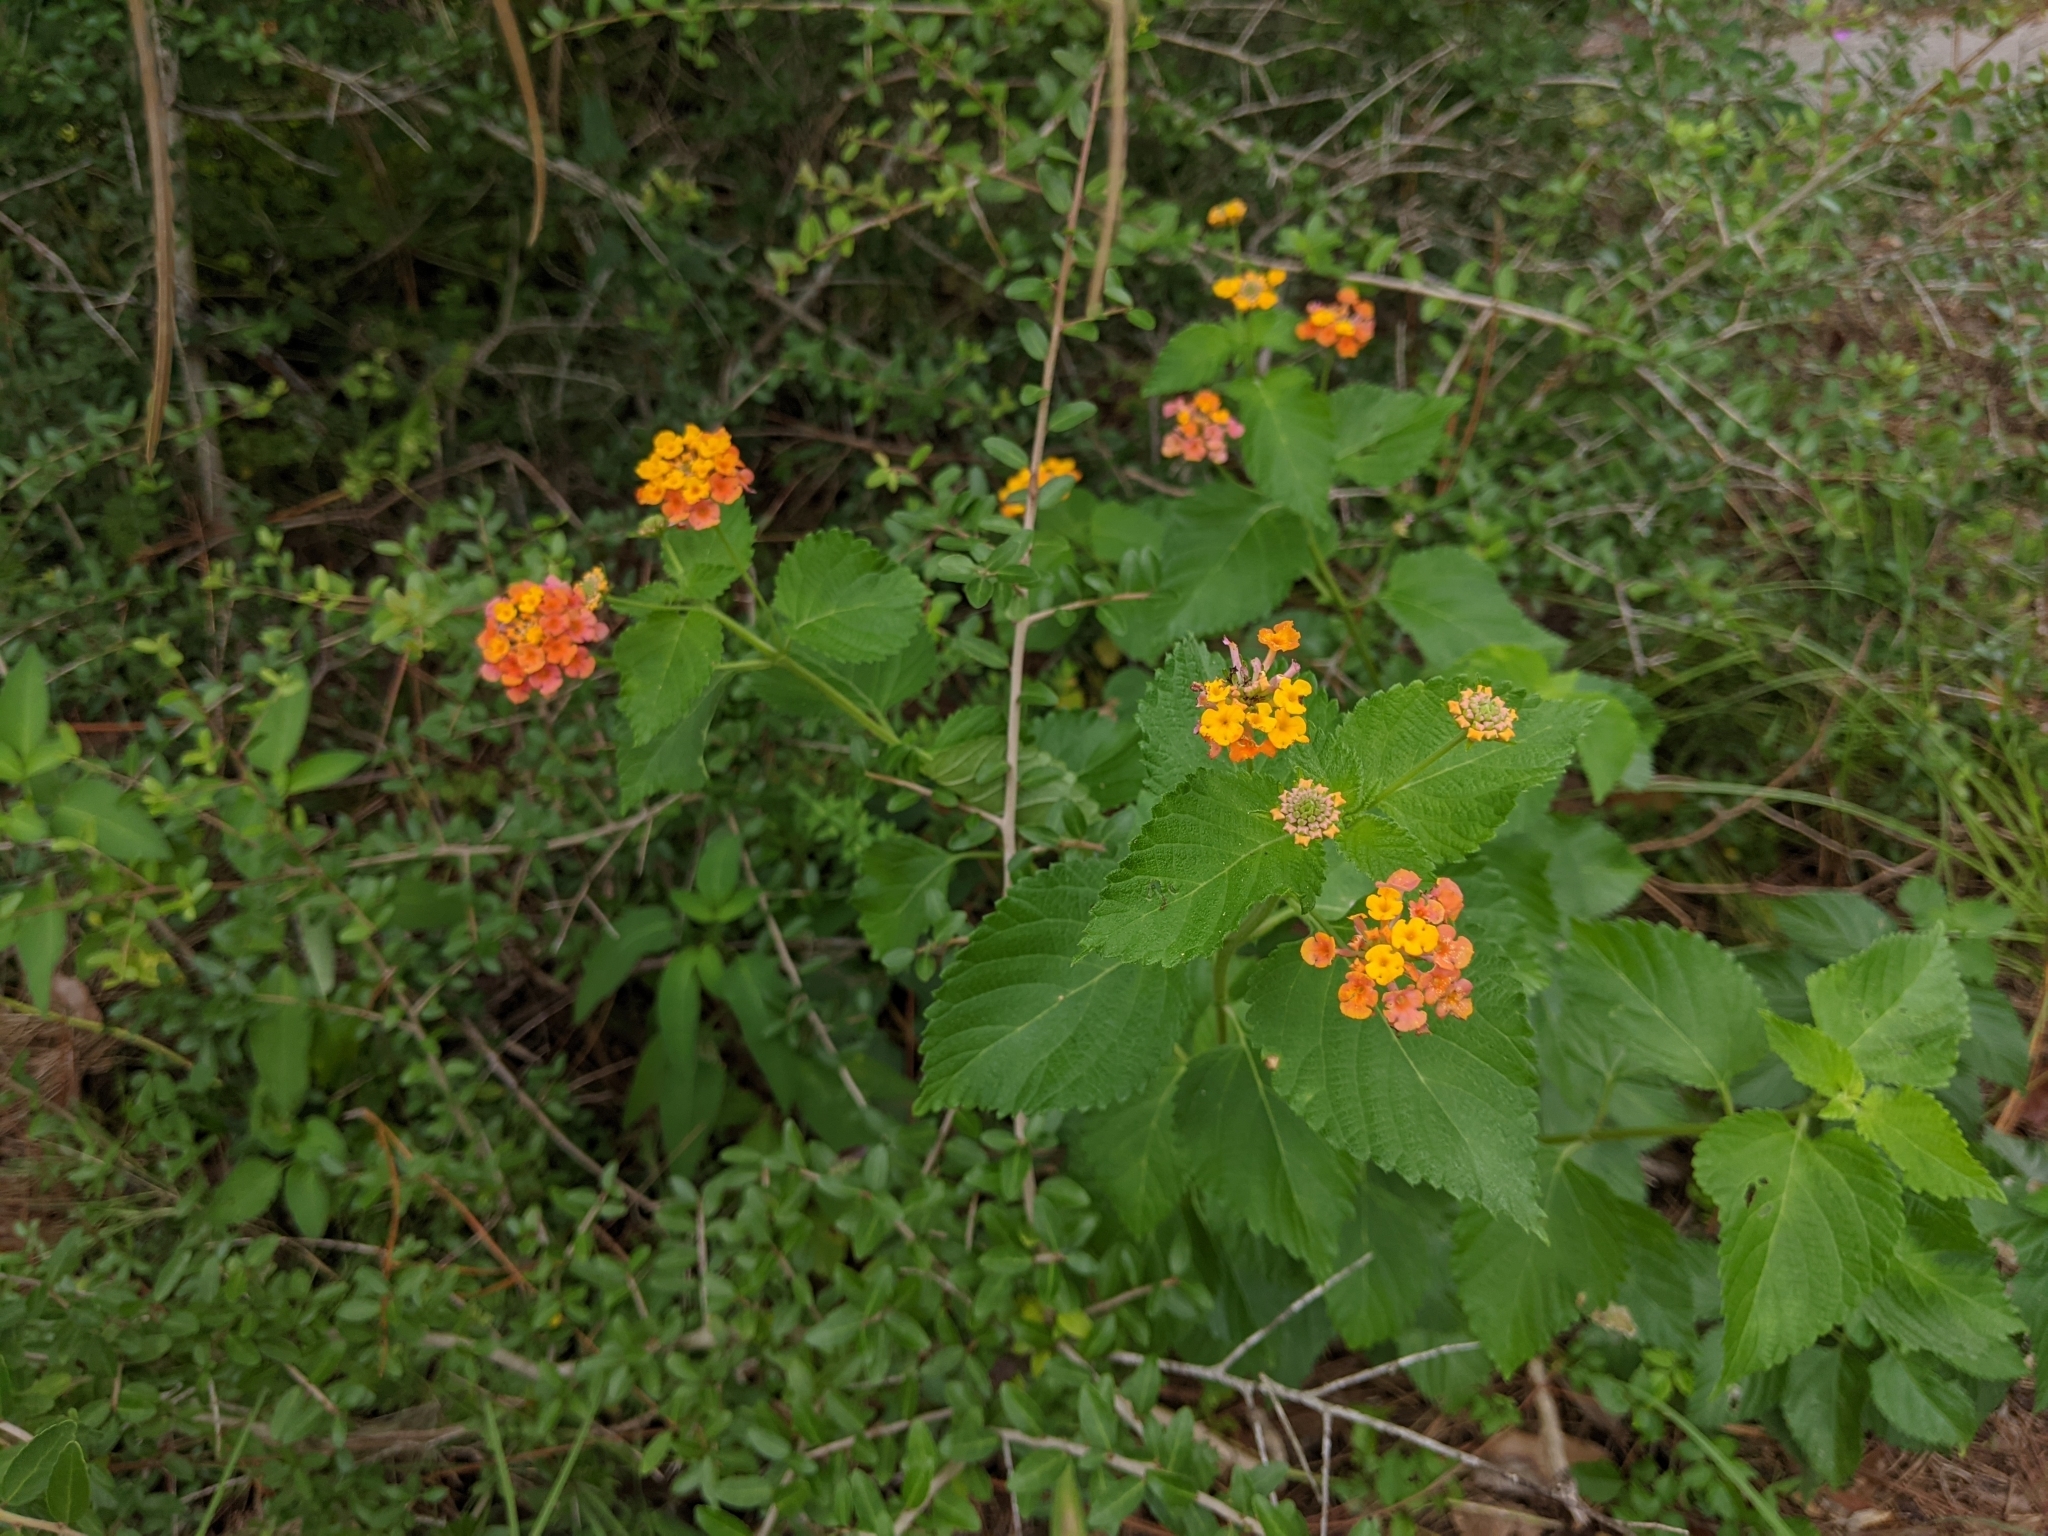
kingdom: Plantae
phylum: Tracheophyta
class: Magnoliopsida
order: Lamiales
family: Verbenaceae
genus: Lantana
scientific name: Lantana strigocamara
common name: Lantana
